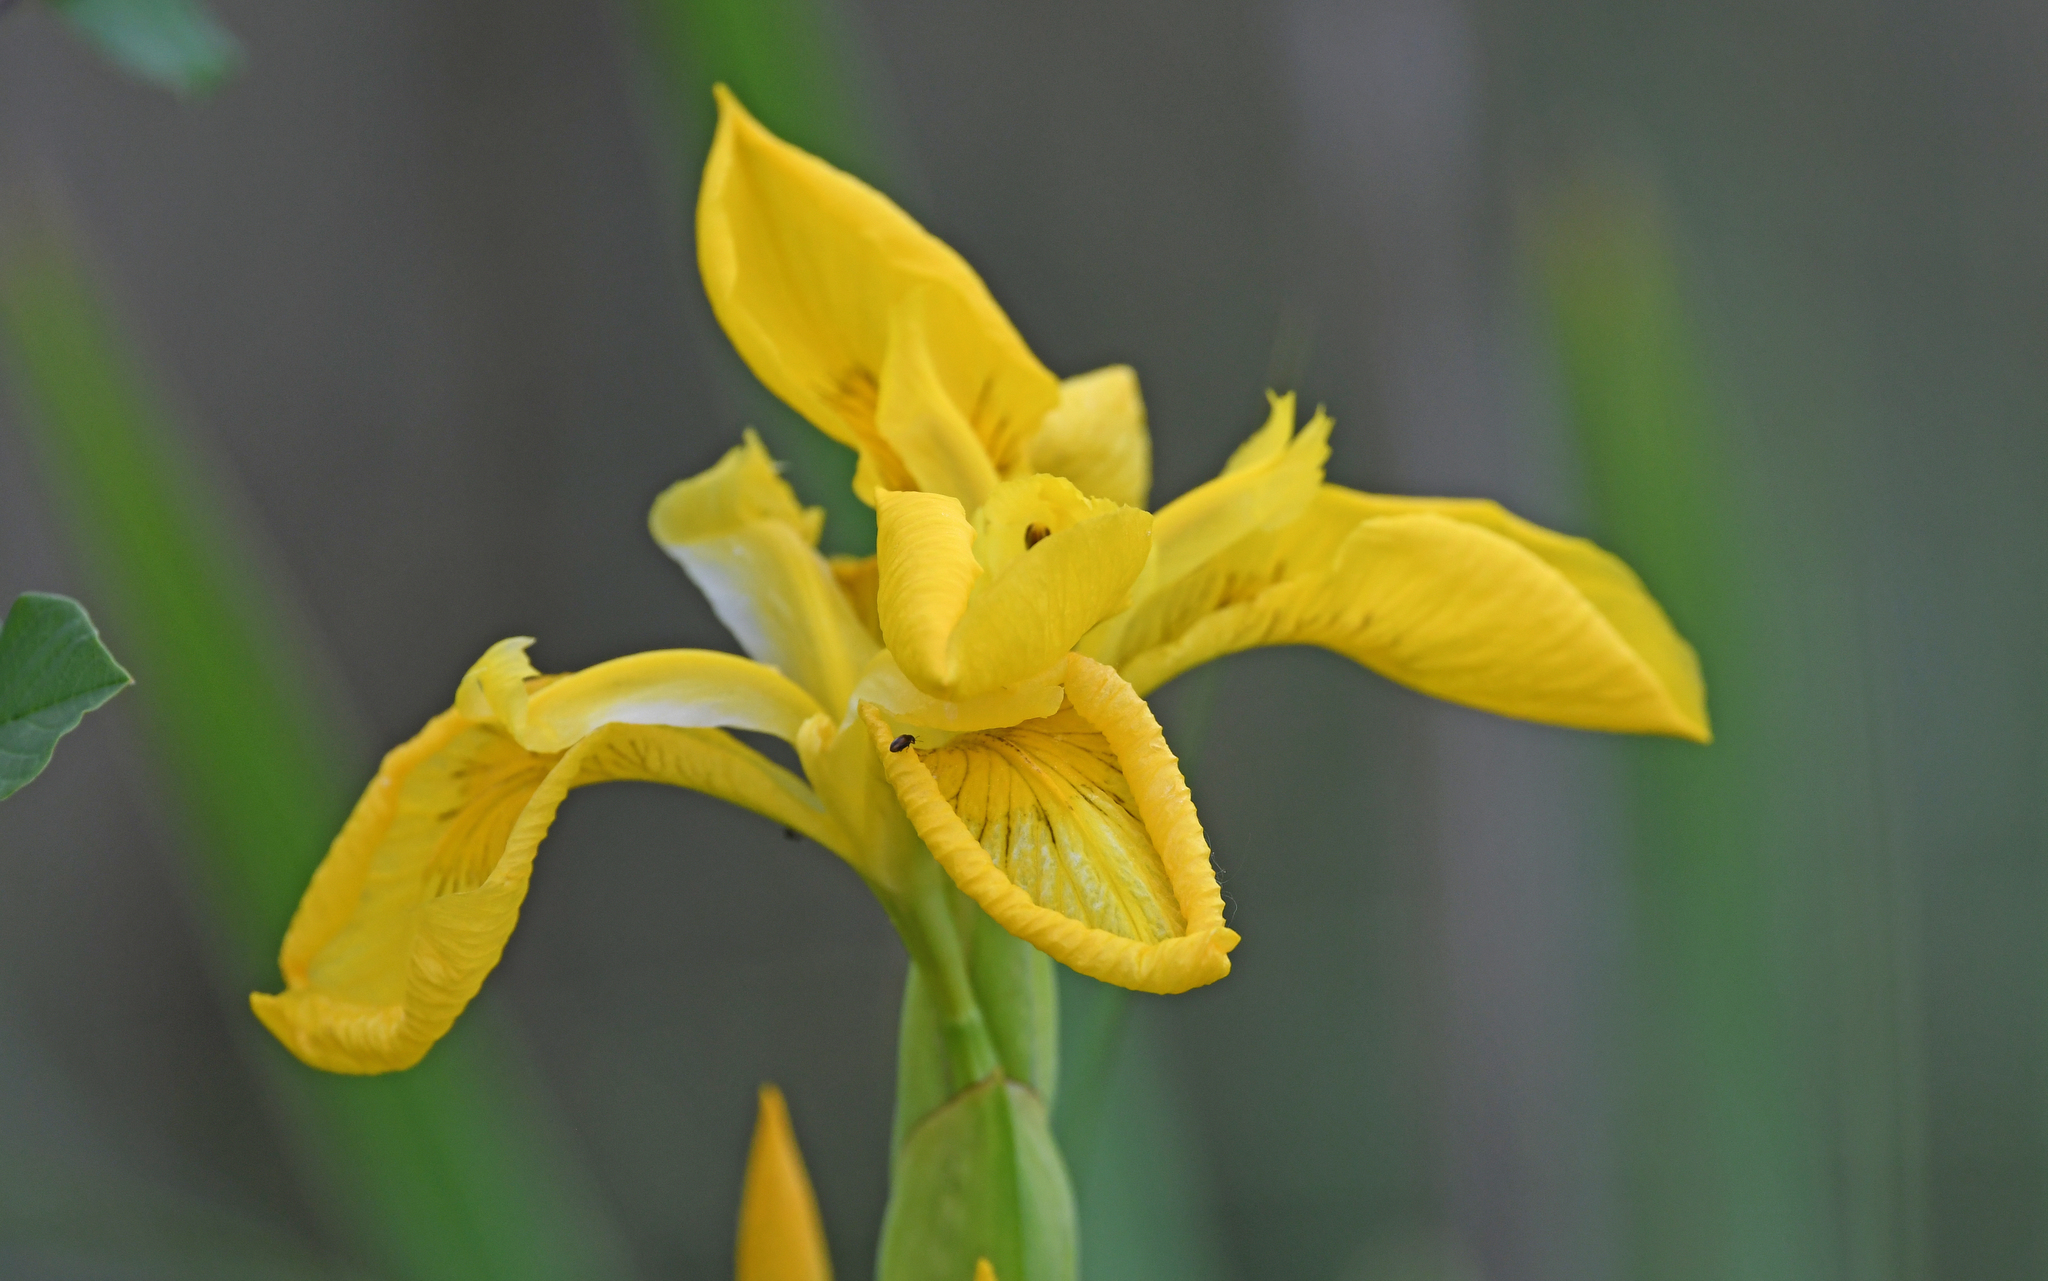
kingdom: Plantae
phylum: Tracheophyta
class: Liliopsida
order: Asparagales
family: Iridaceae
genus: Iris
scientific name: Iris pseudacorus
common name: Yellow flag
